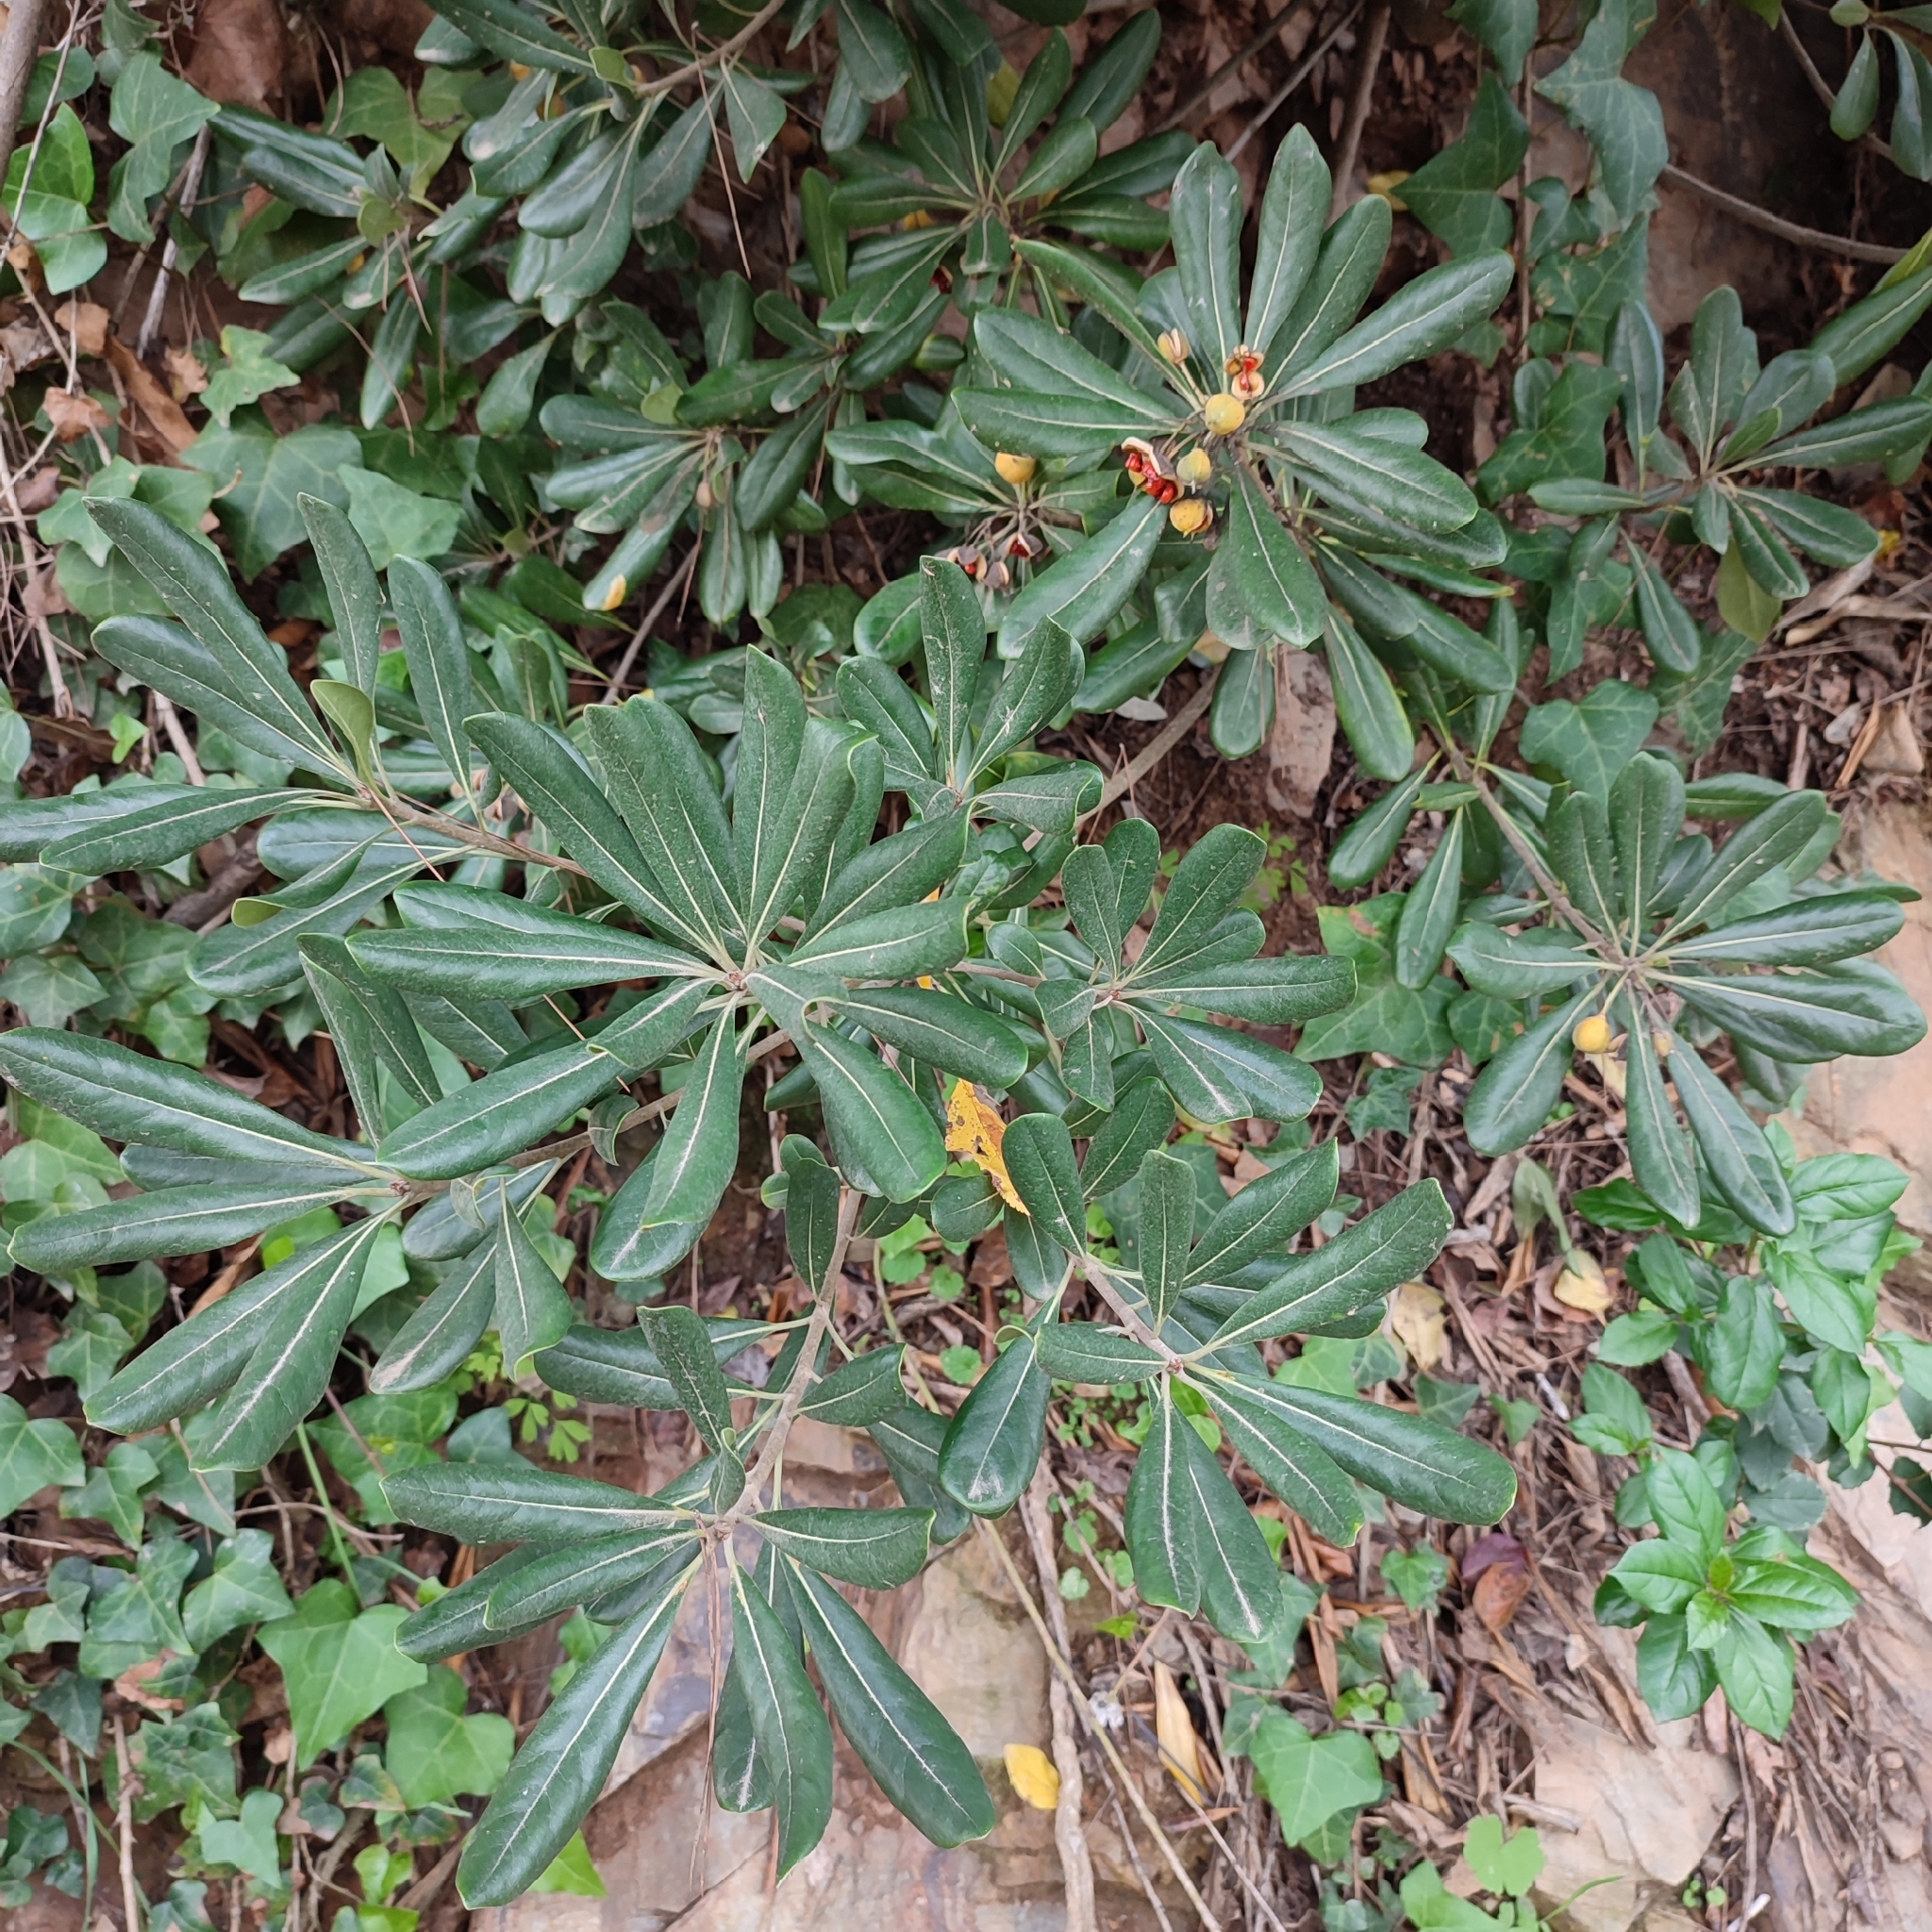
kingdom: Plantae
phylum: Tracheophyta
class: Magnoliopsida
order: Apiales
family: Pittosporaceae
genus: Pittosporum
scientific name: Pittosporum tobira
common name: Japanese cheesewood
